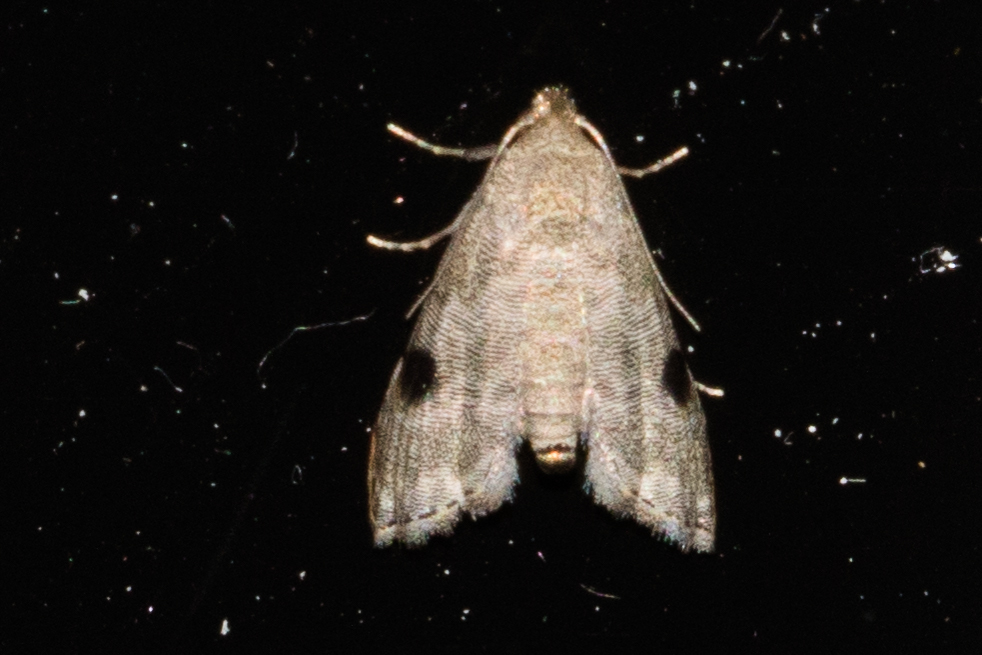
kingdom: Animalia
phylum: Arthropoda
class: Insecta
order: Lepidoptera
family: Noctuidae
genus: Abablemma
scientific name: Abablemma brimleyana
